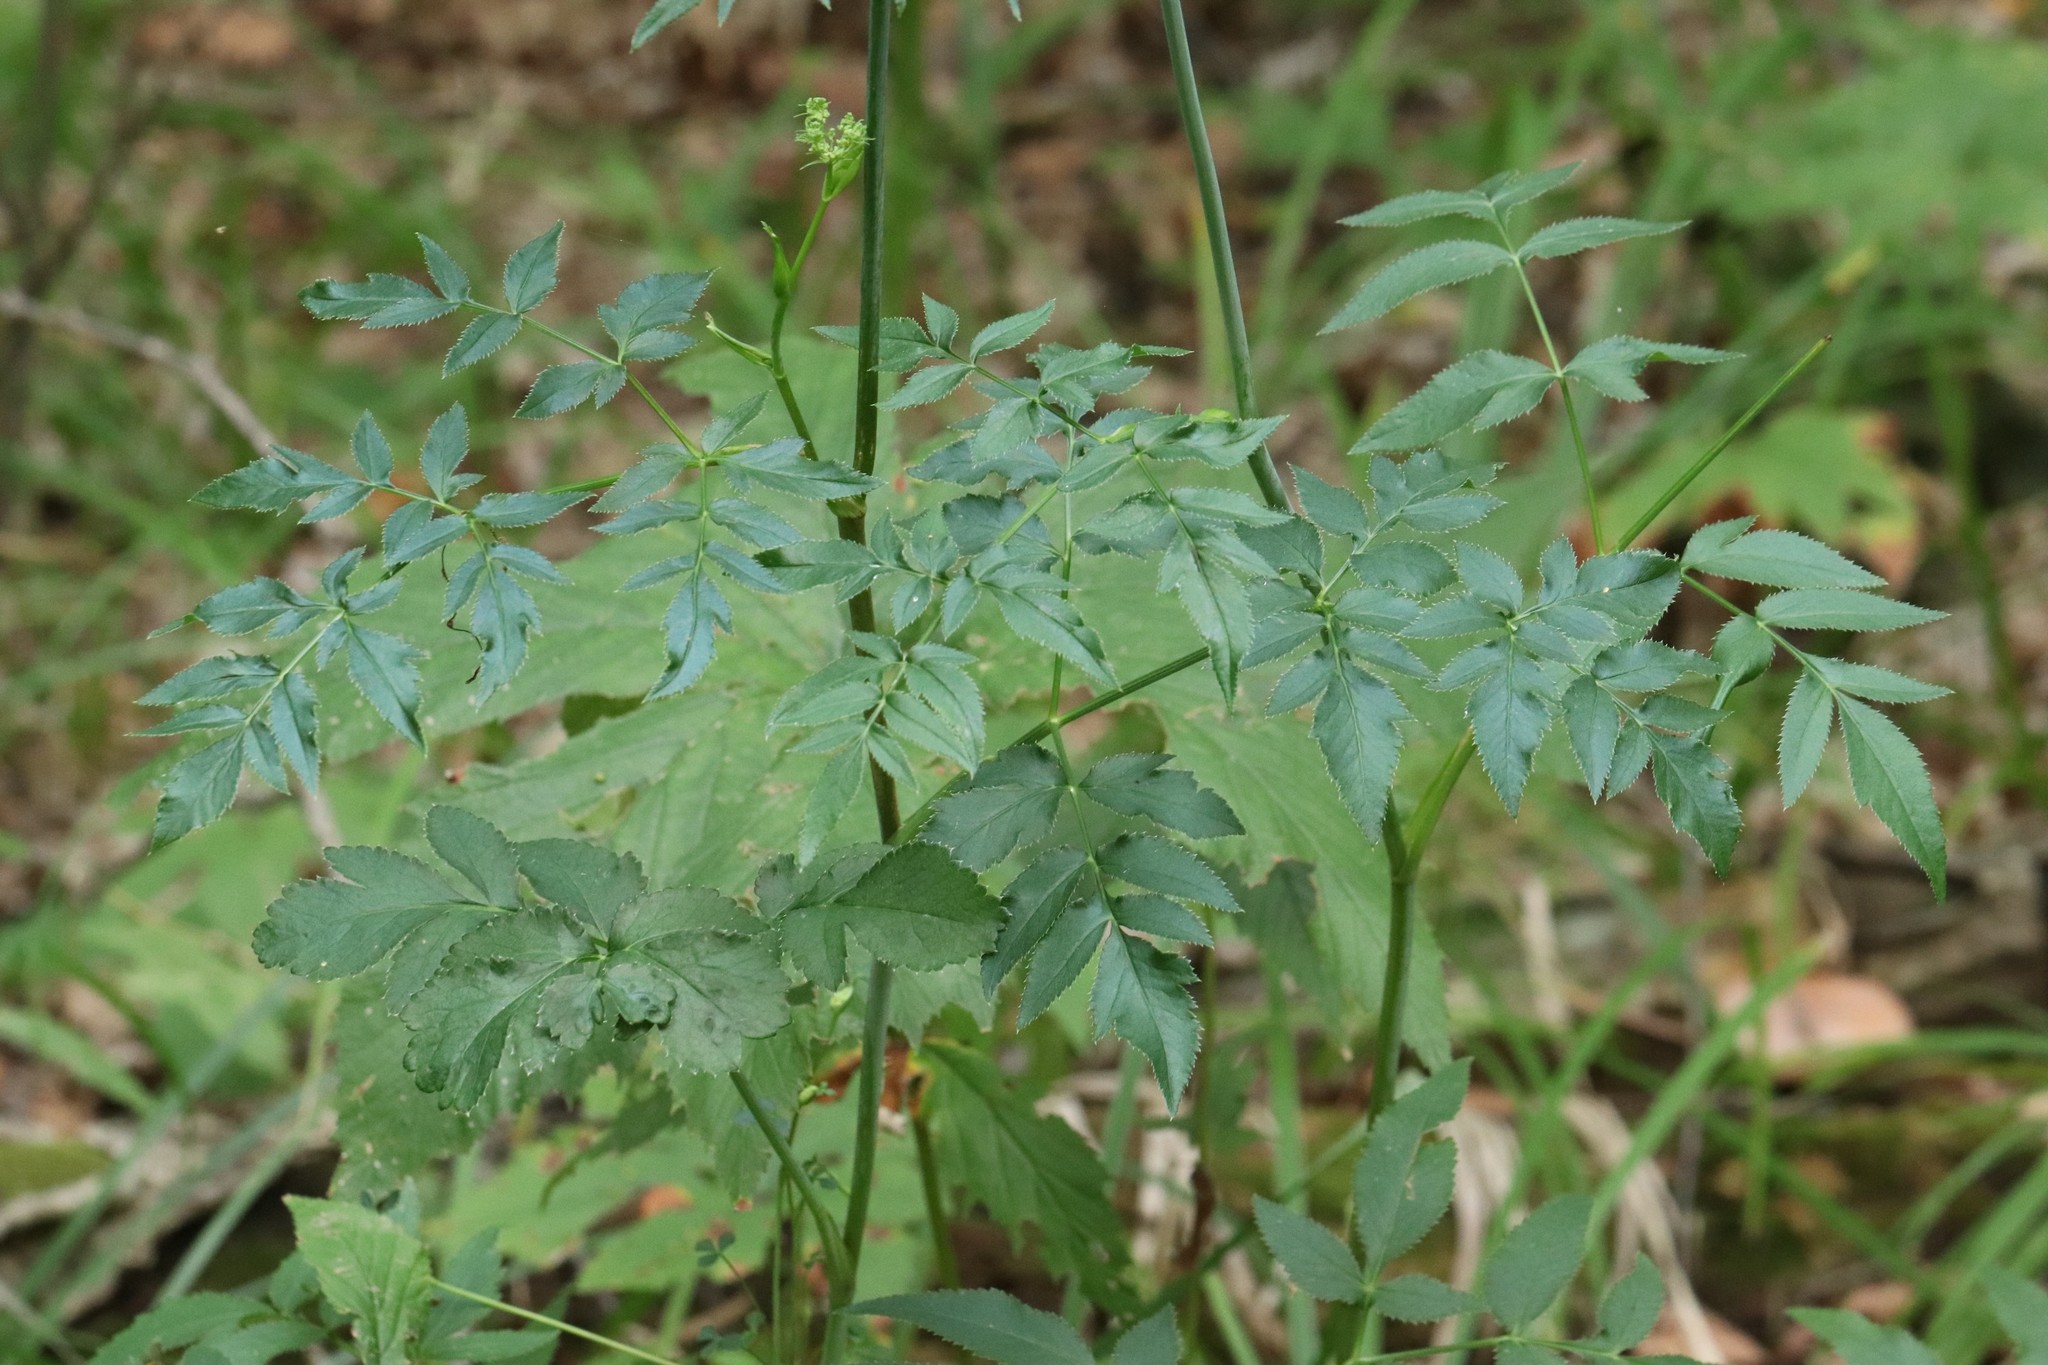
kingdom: Plantae
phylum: Tracheophyta
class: Magnoliopsida
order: Apiales
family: Apiaceae
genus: Angelica
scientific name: Angelica czernaevia
